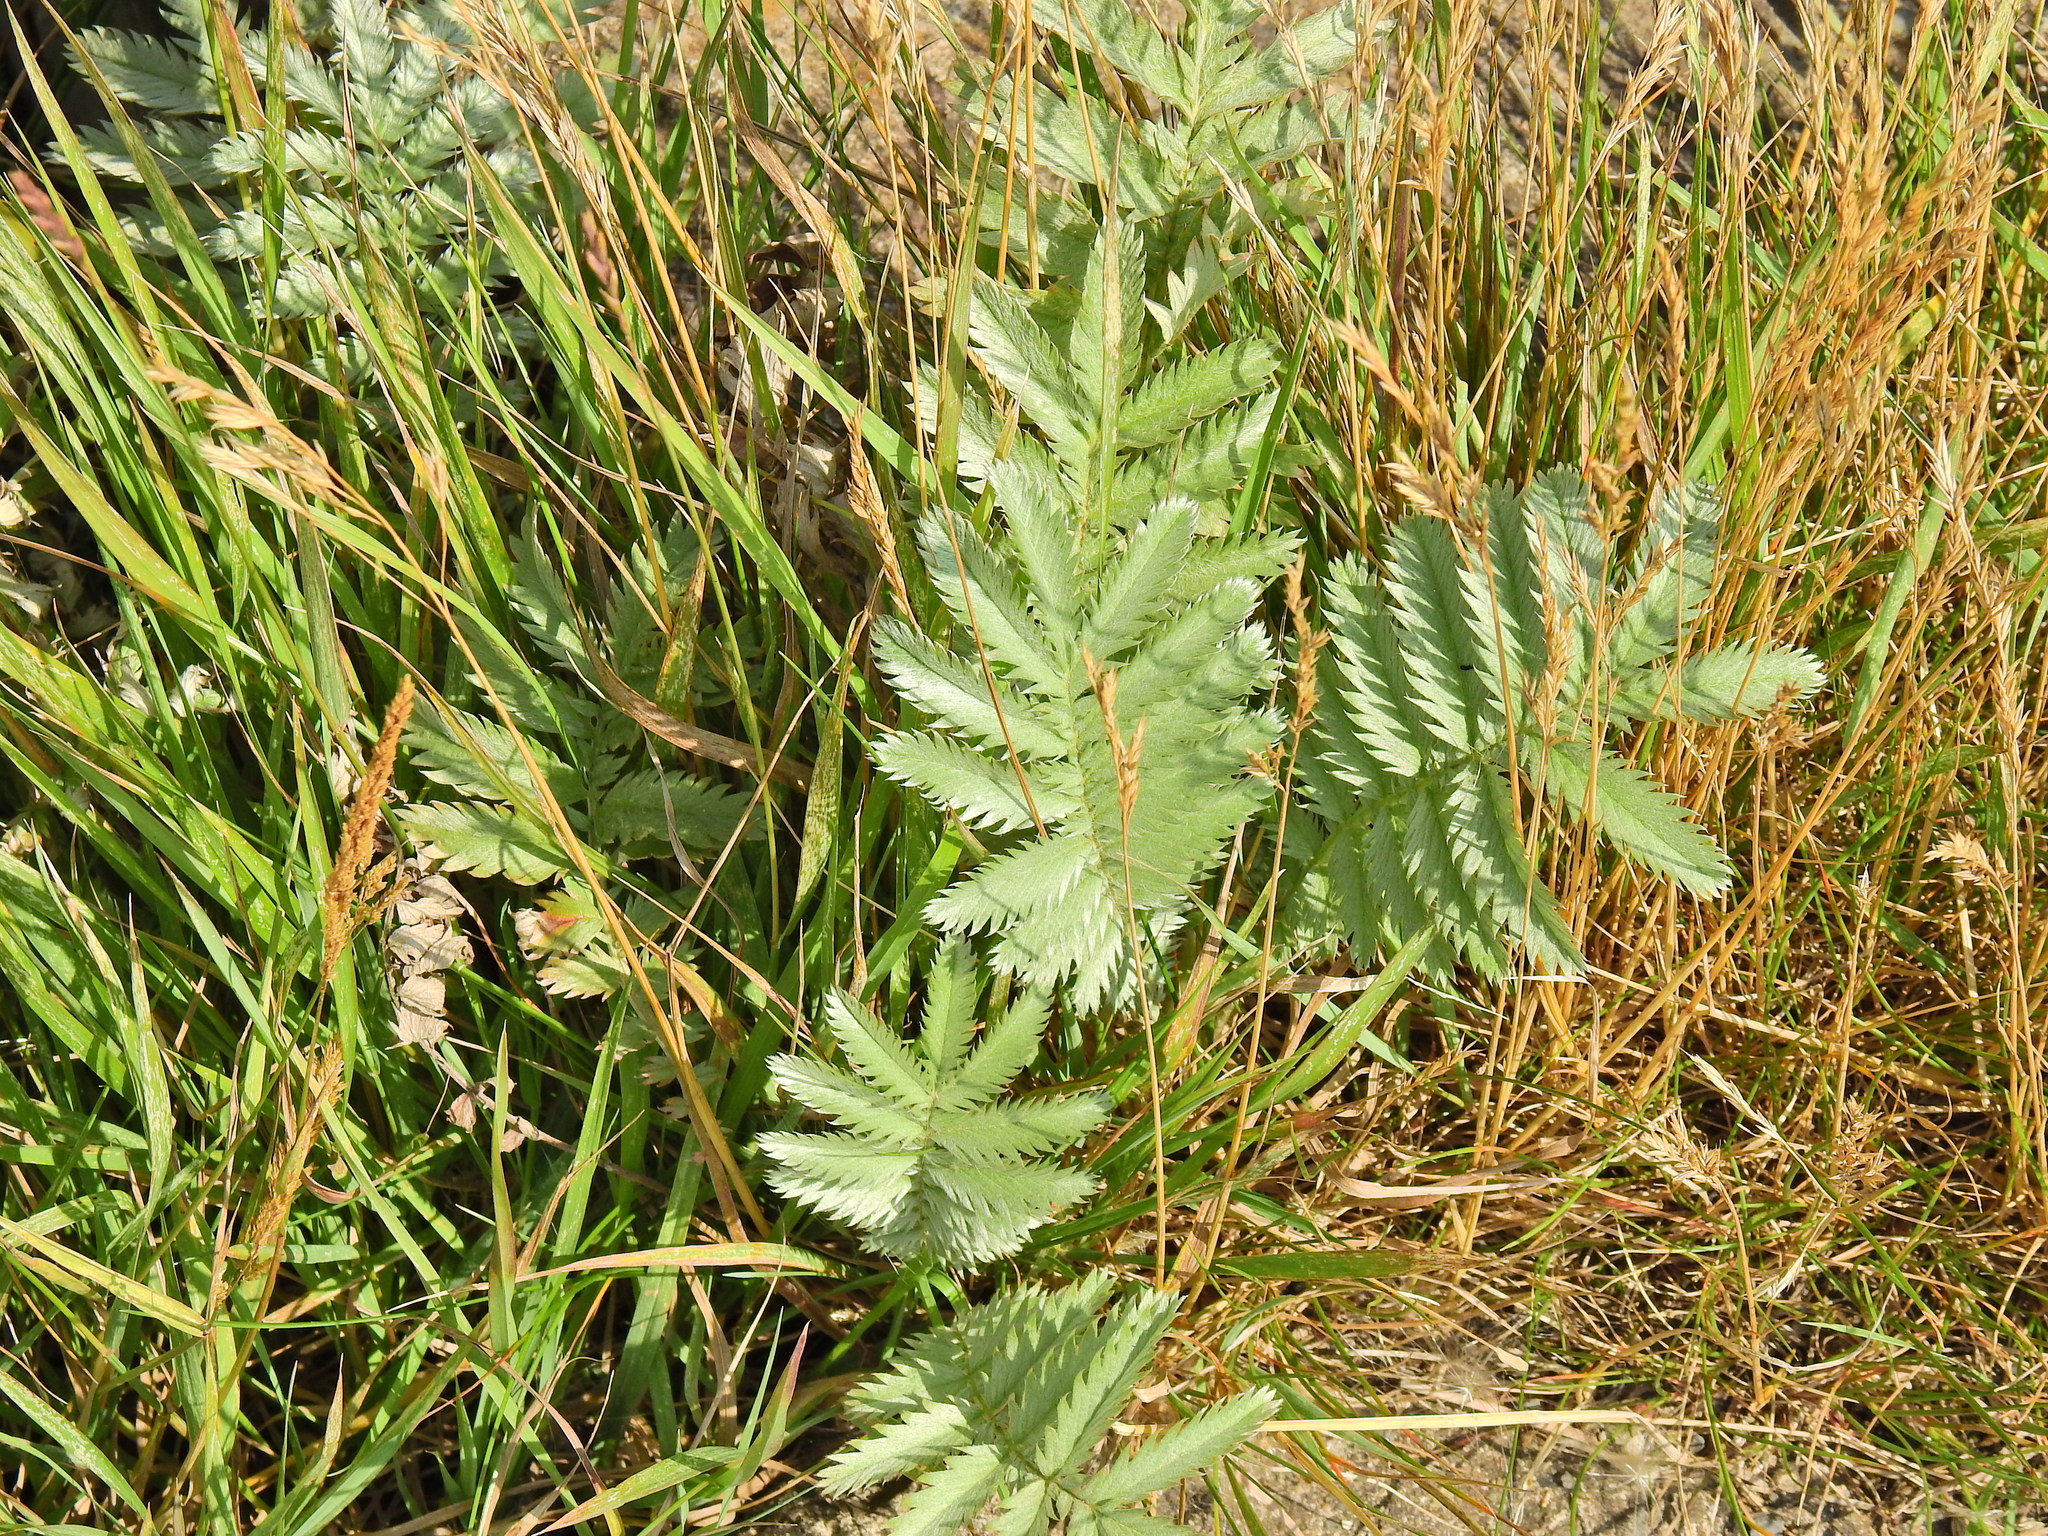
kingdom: Plantae
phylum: Tracheophyta
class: Magnoliopsida
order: Rosales
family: Rosaceae
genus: Argentina
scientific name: Argentina anserina
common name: Common silverweed
